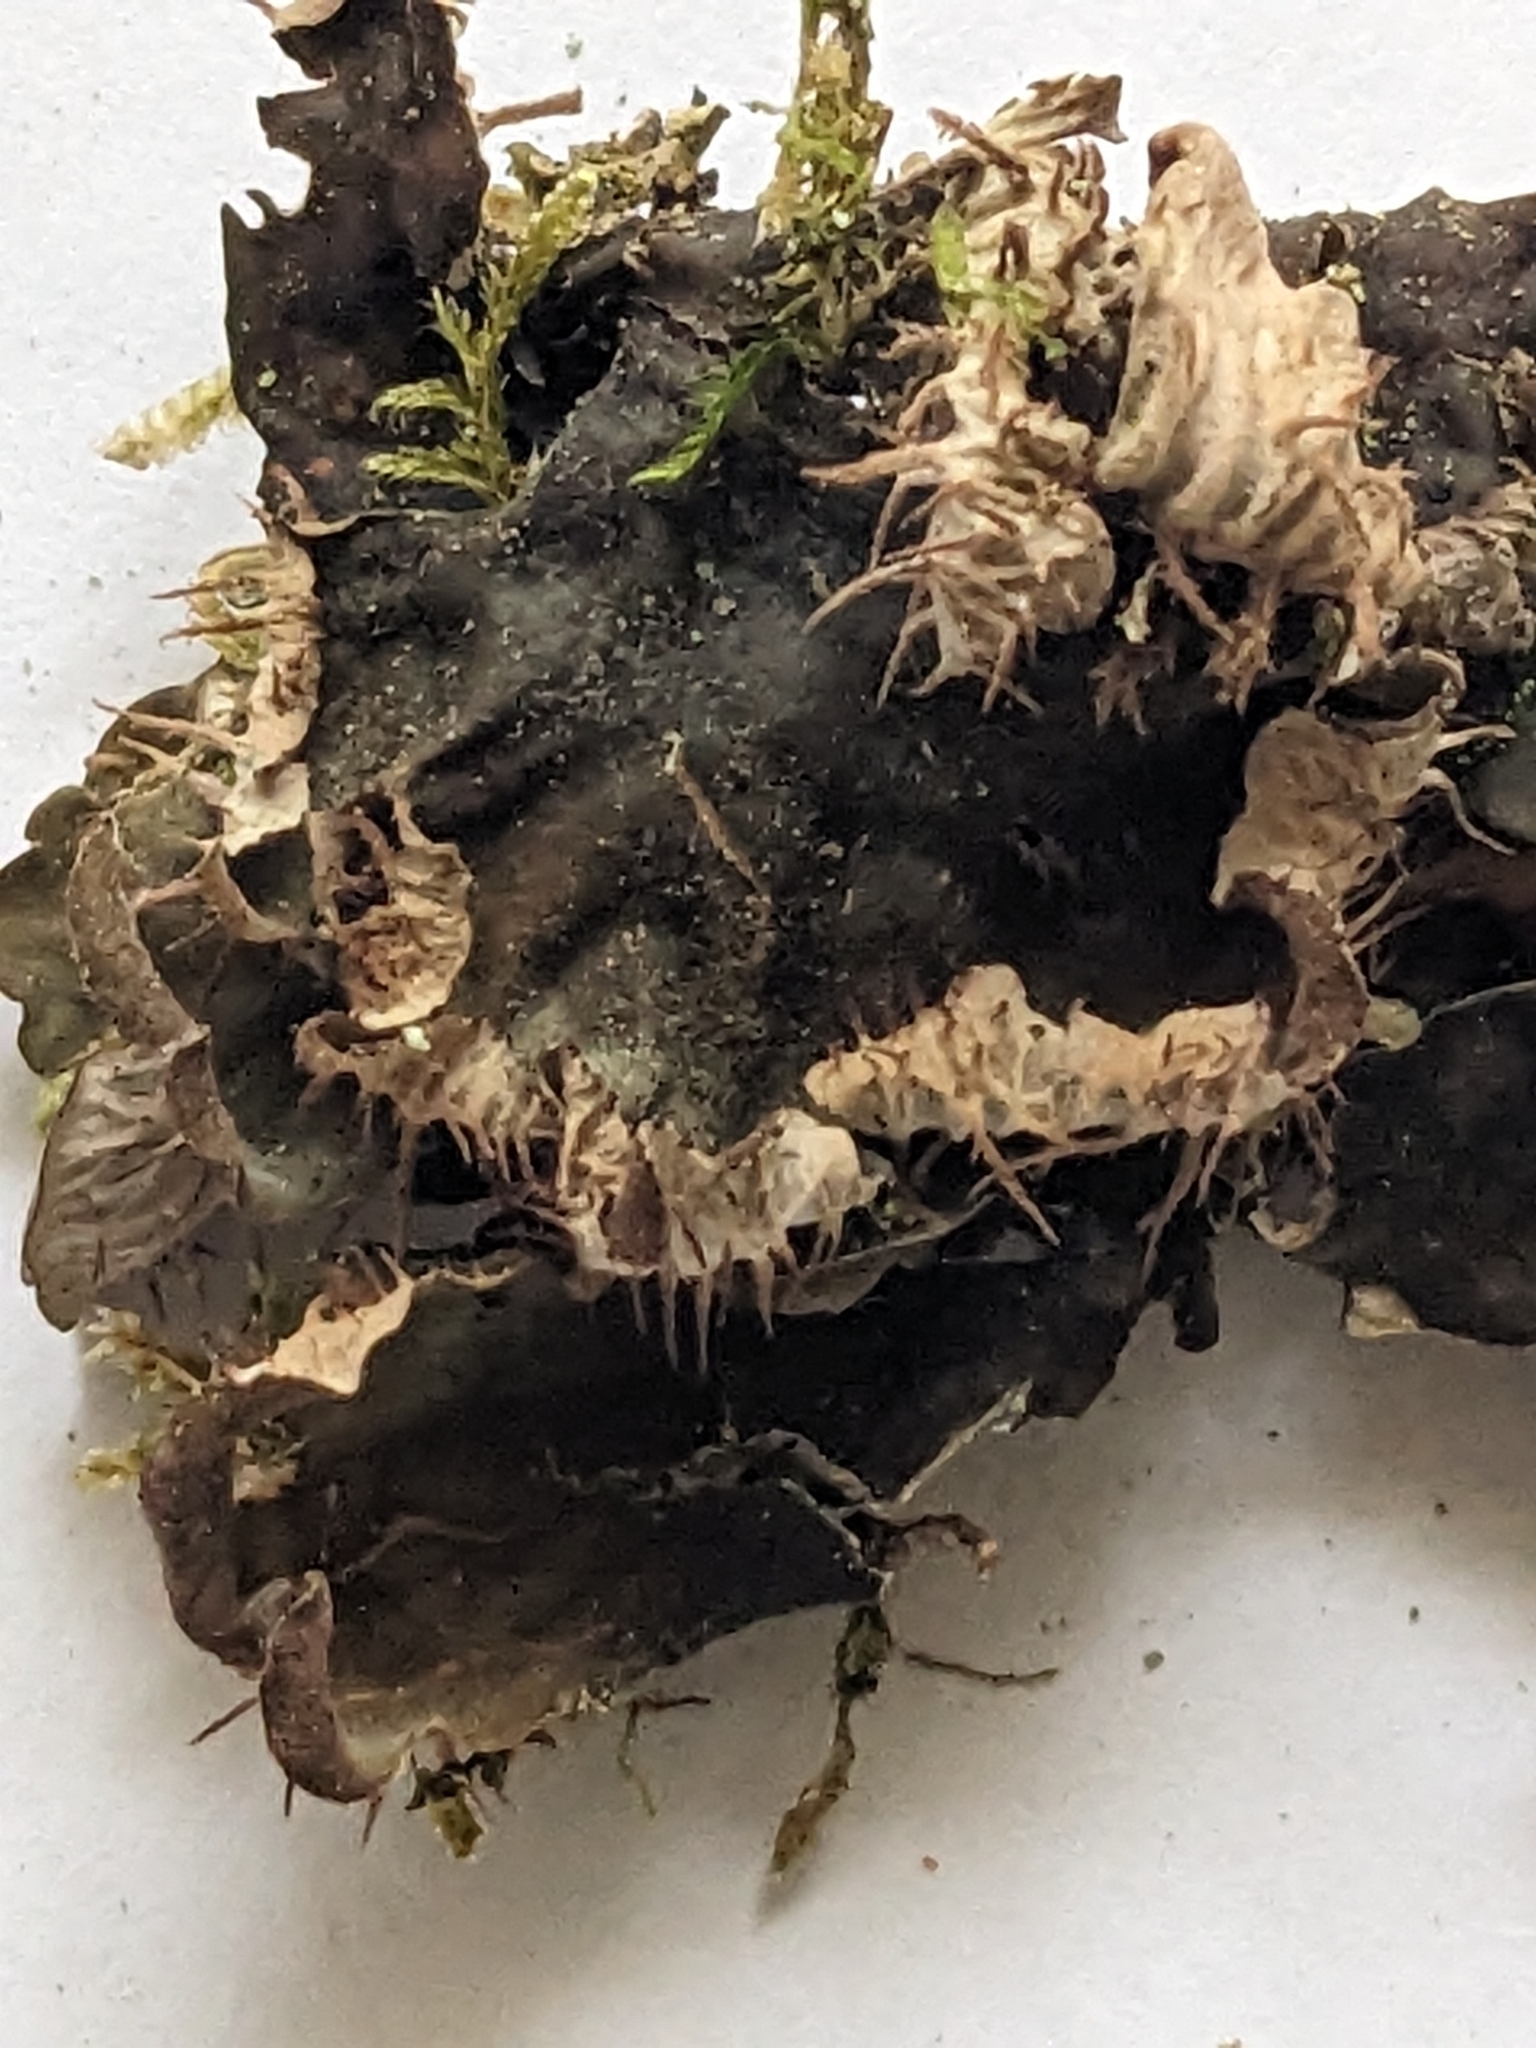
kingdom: Fungi
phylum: Ascomycota
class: Lecanoromycetes
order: Peltigerales
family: Peltigeraceae
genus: Peltigera
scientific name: Peltigera membranacea
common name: Membranous pelt lichen
